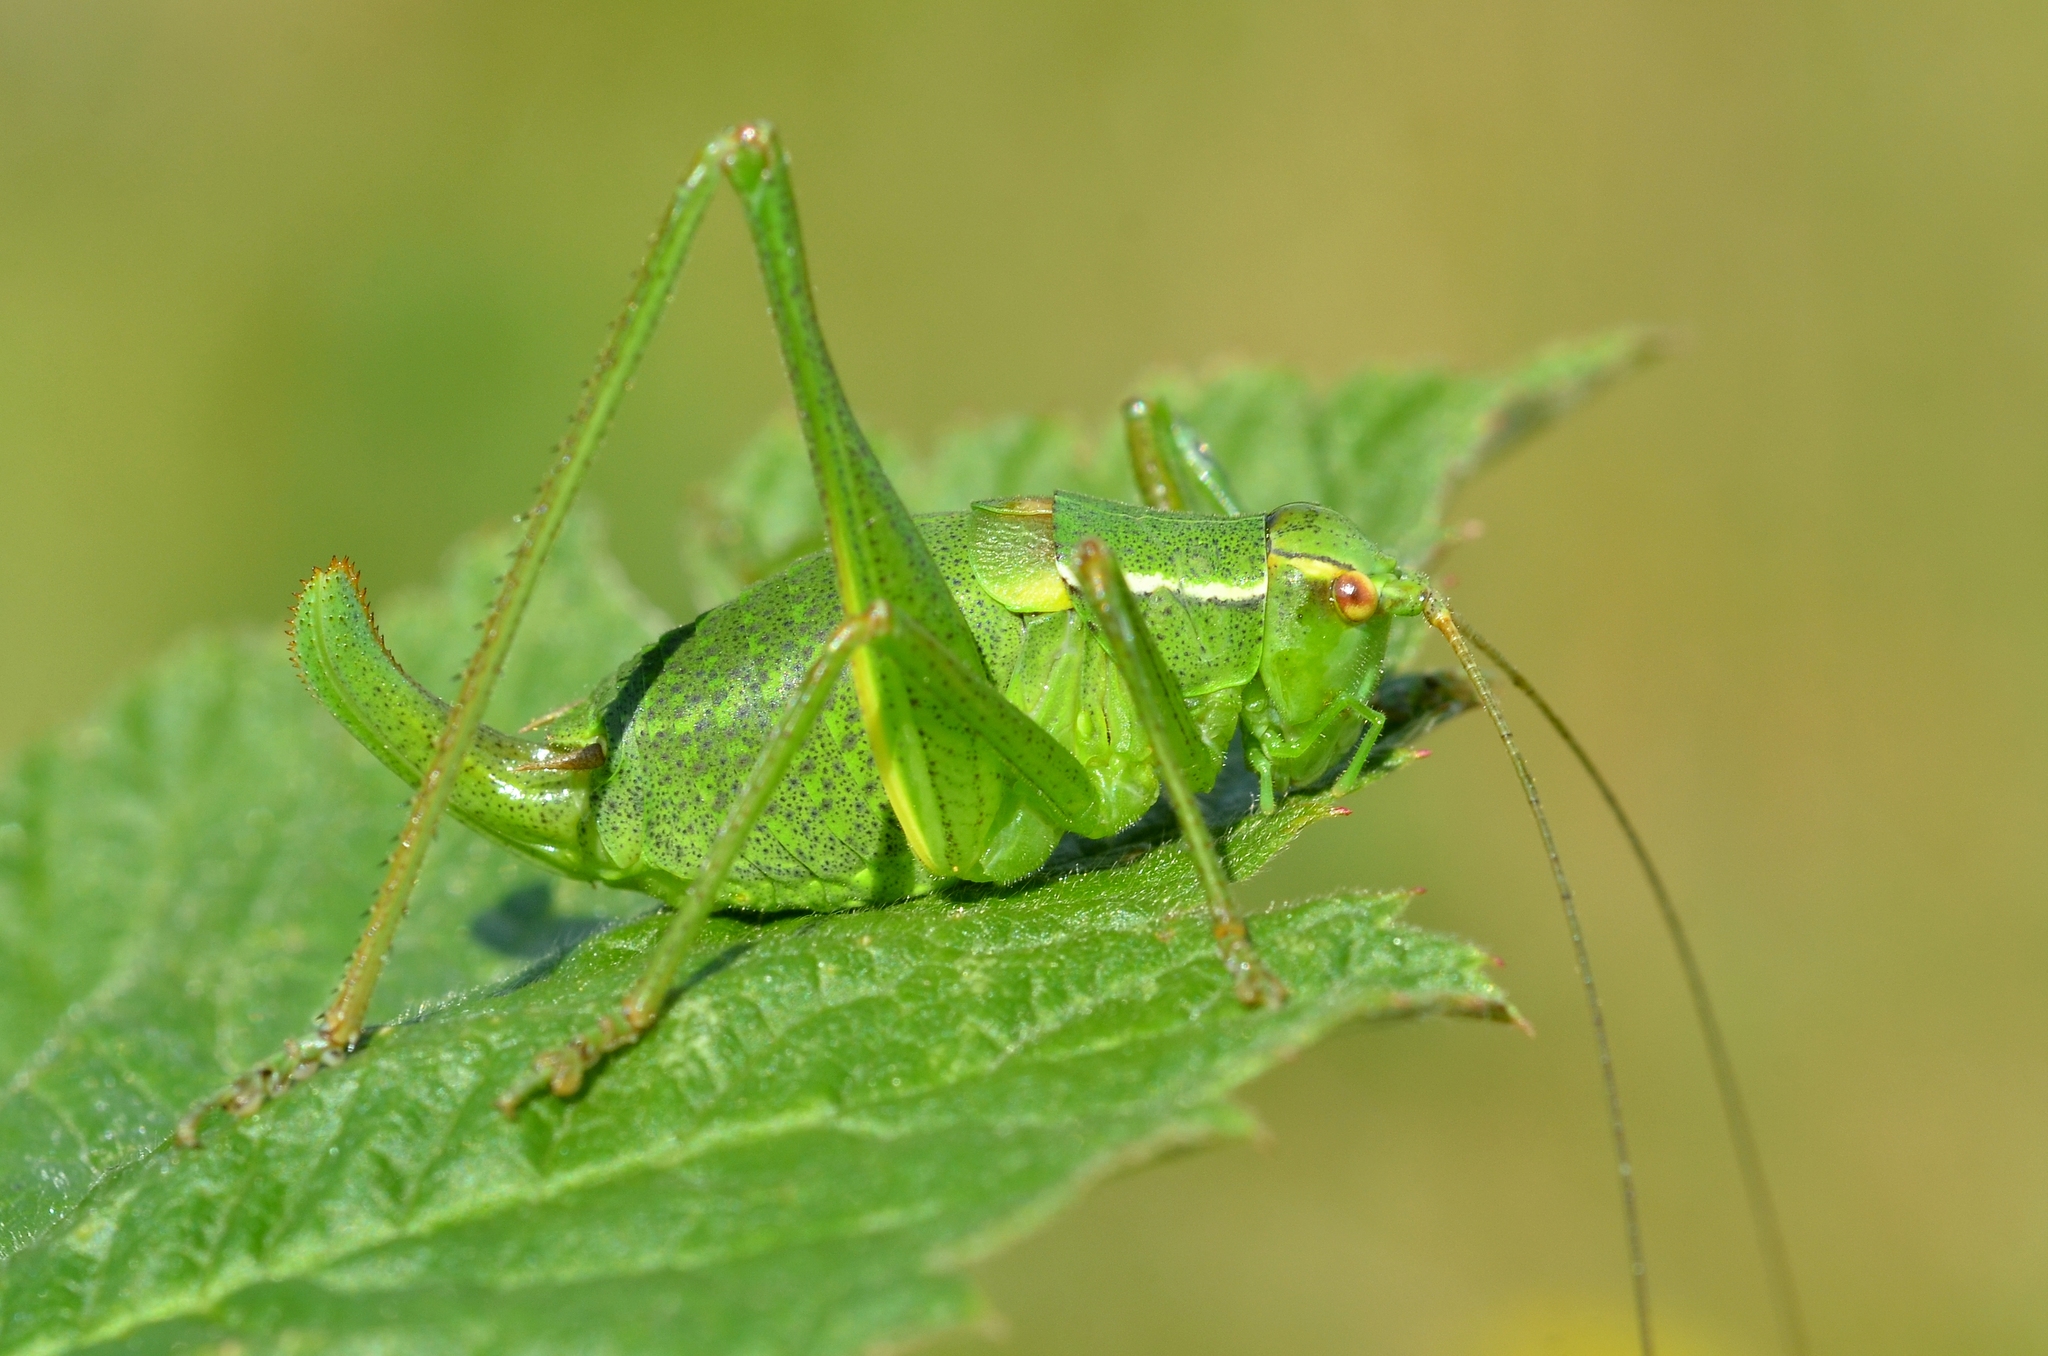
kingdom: Animalia
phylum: Arthropoda
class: Insecta
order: Orthoptera
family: Tettigoniidae
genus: Barbitistes
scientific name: Barbitistes serricauda
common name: Saw-tailed bush-cricket
